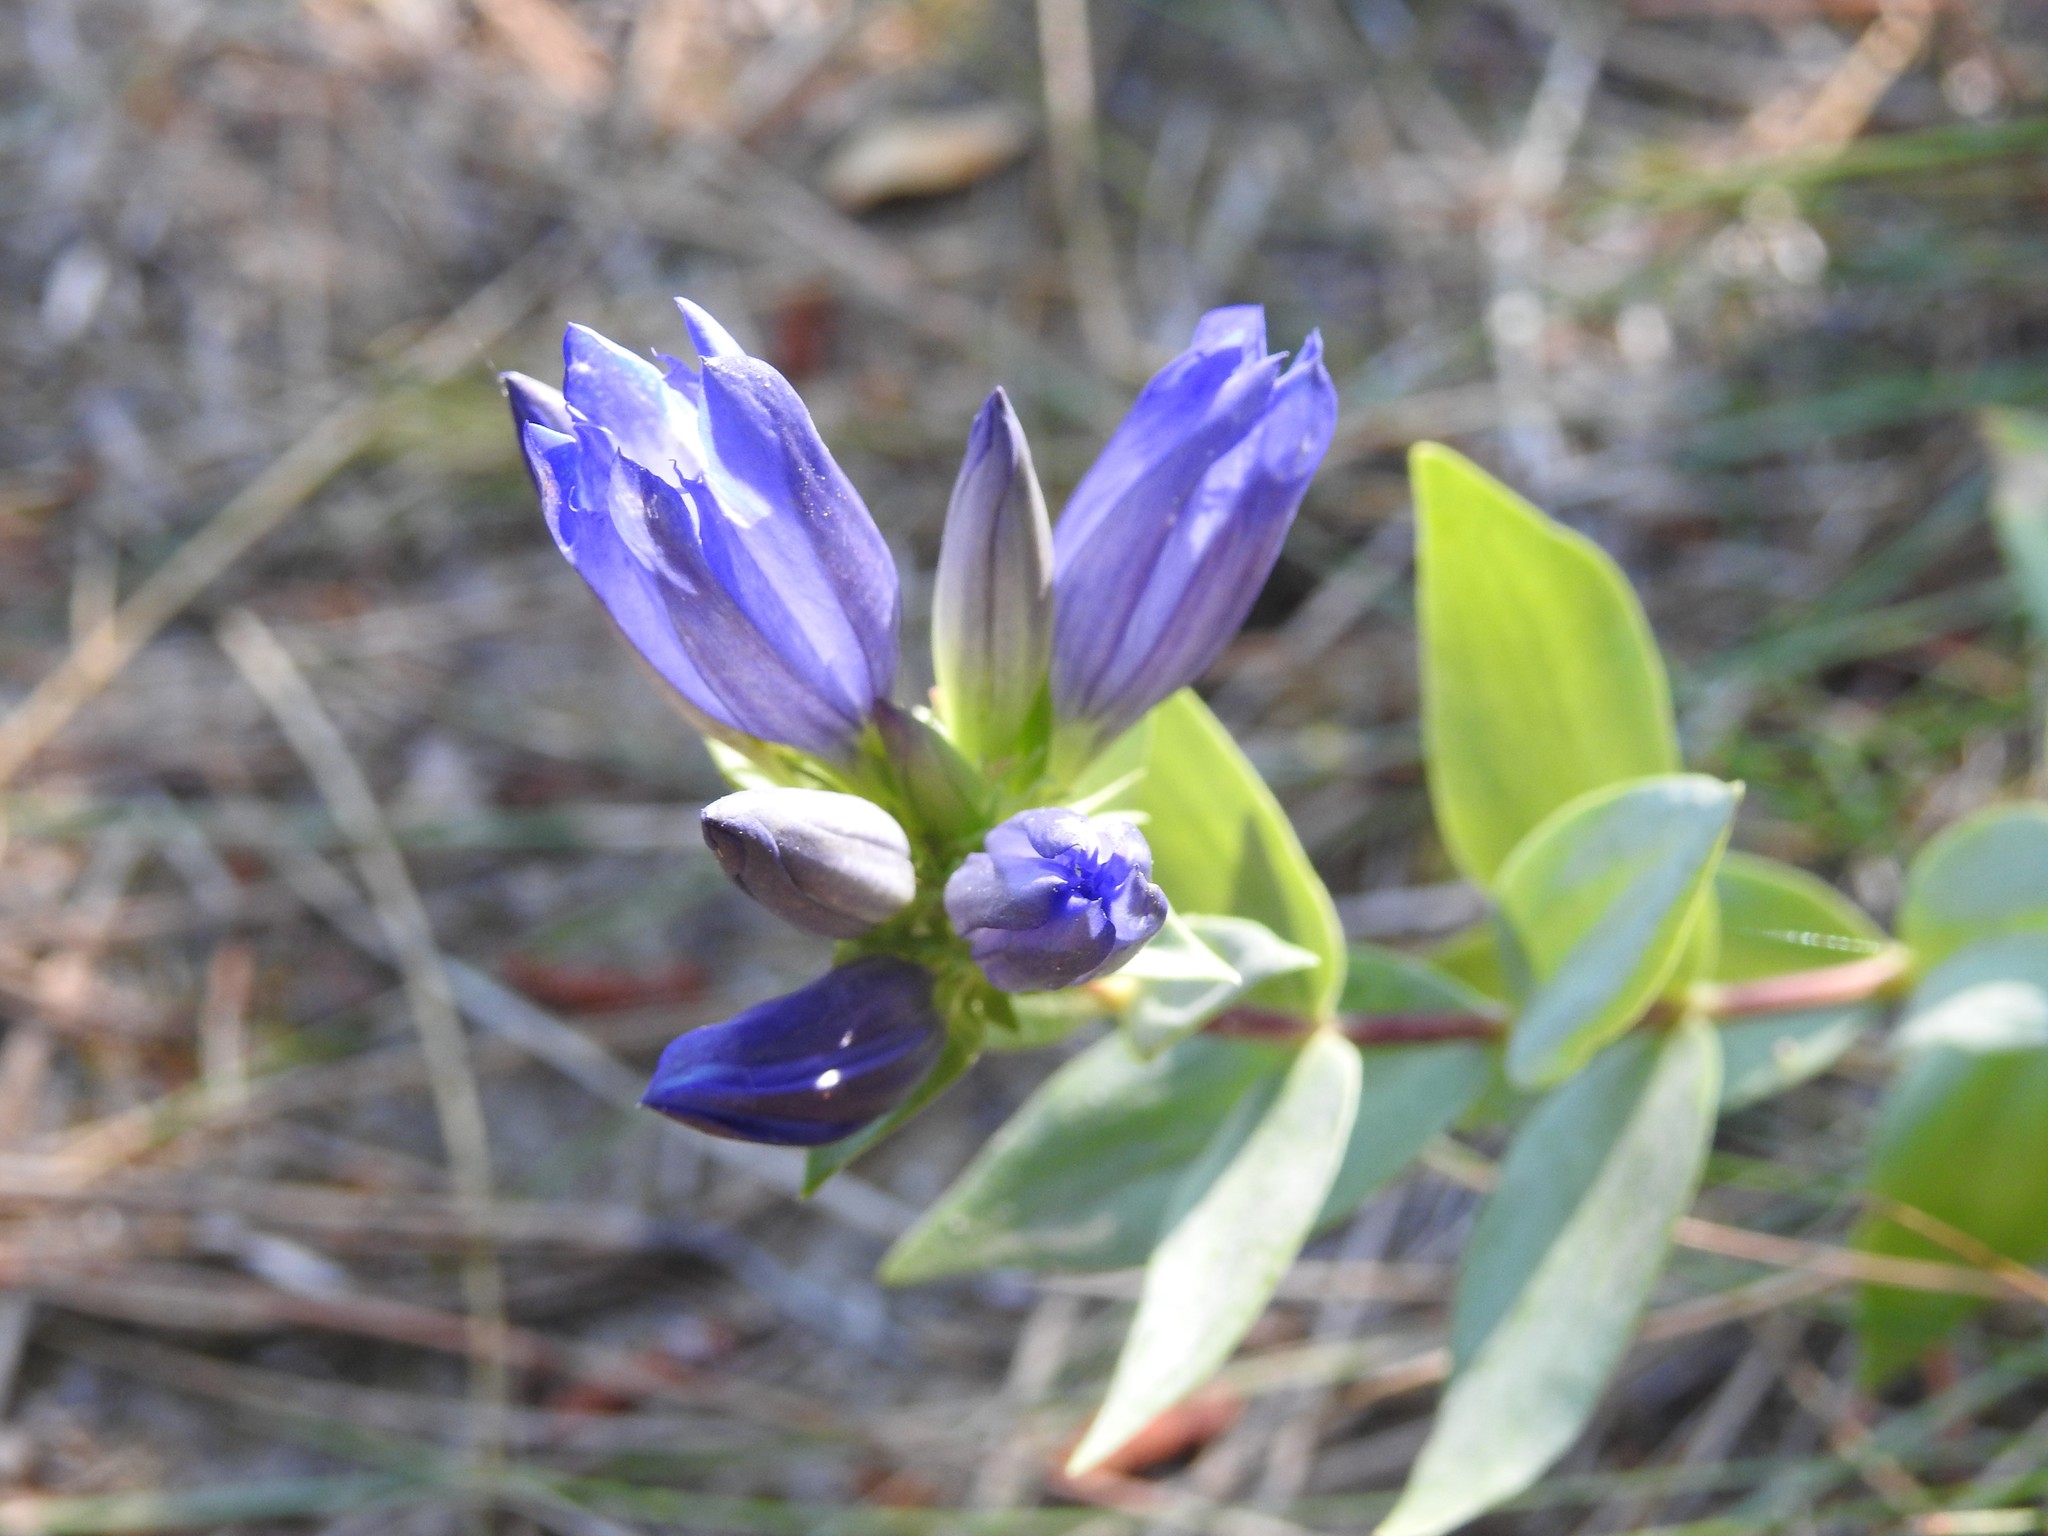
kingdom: Plantae
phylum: Tracheophyta
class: Magnoliopsida
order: Gentianales
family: Gentianaceae
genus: Gentiana
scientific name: Gentiana affinis
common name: Rocky mountain gentian
